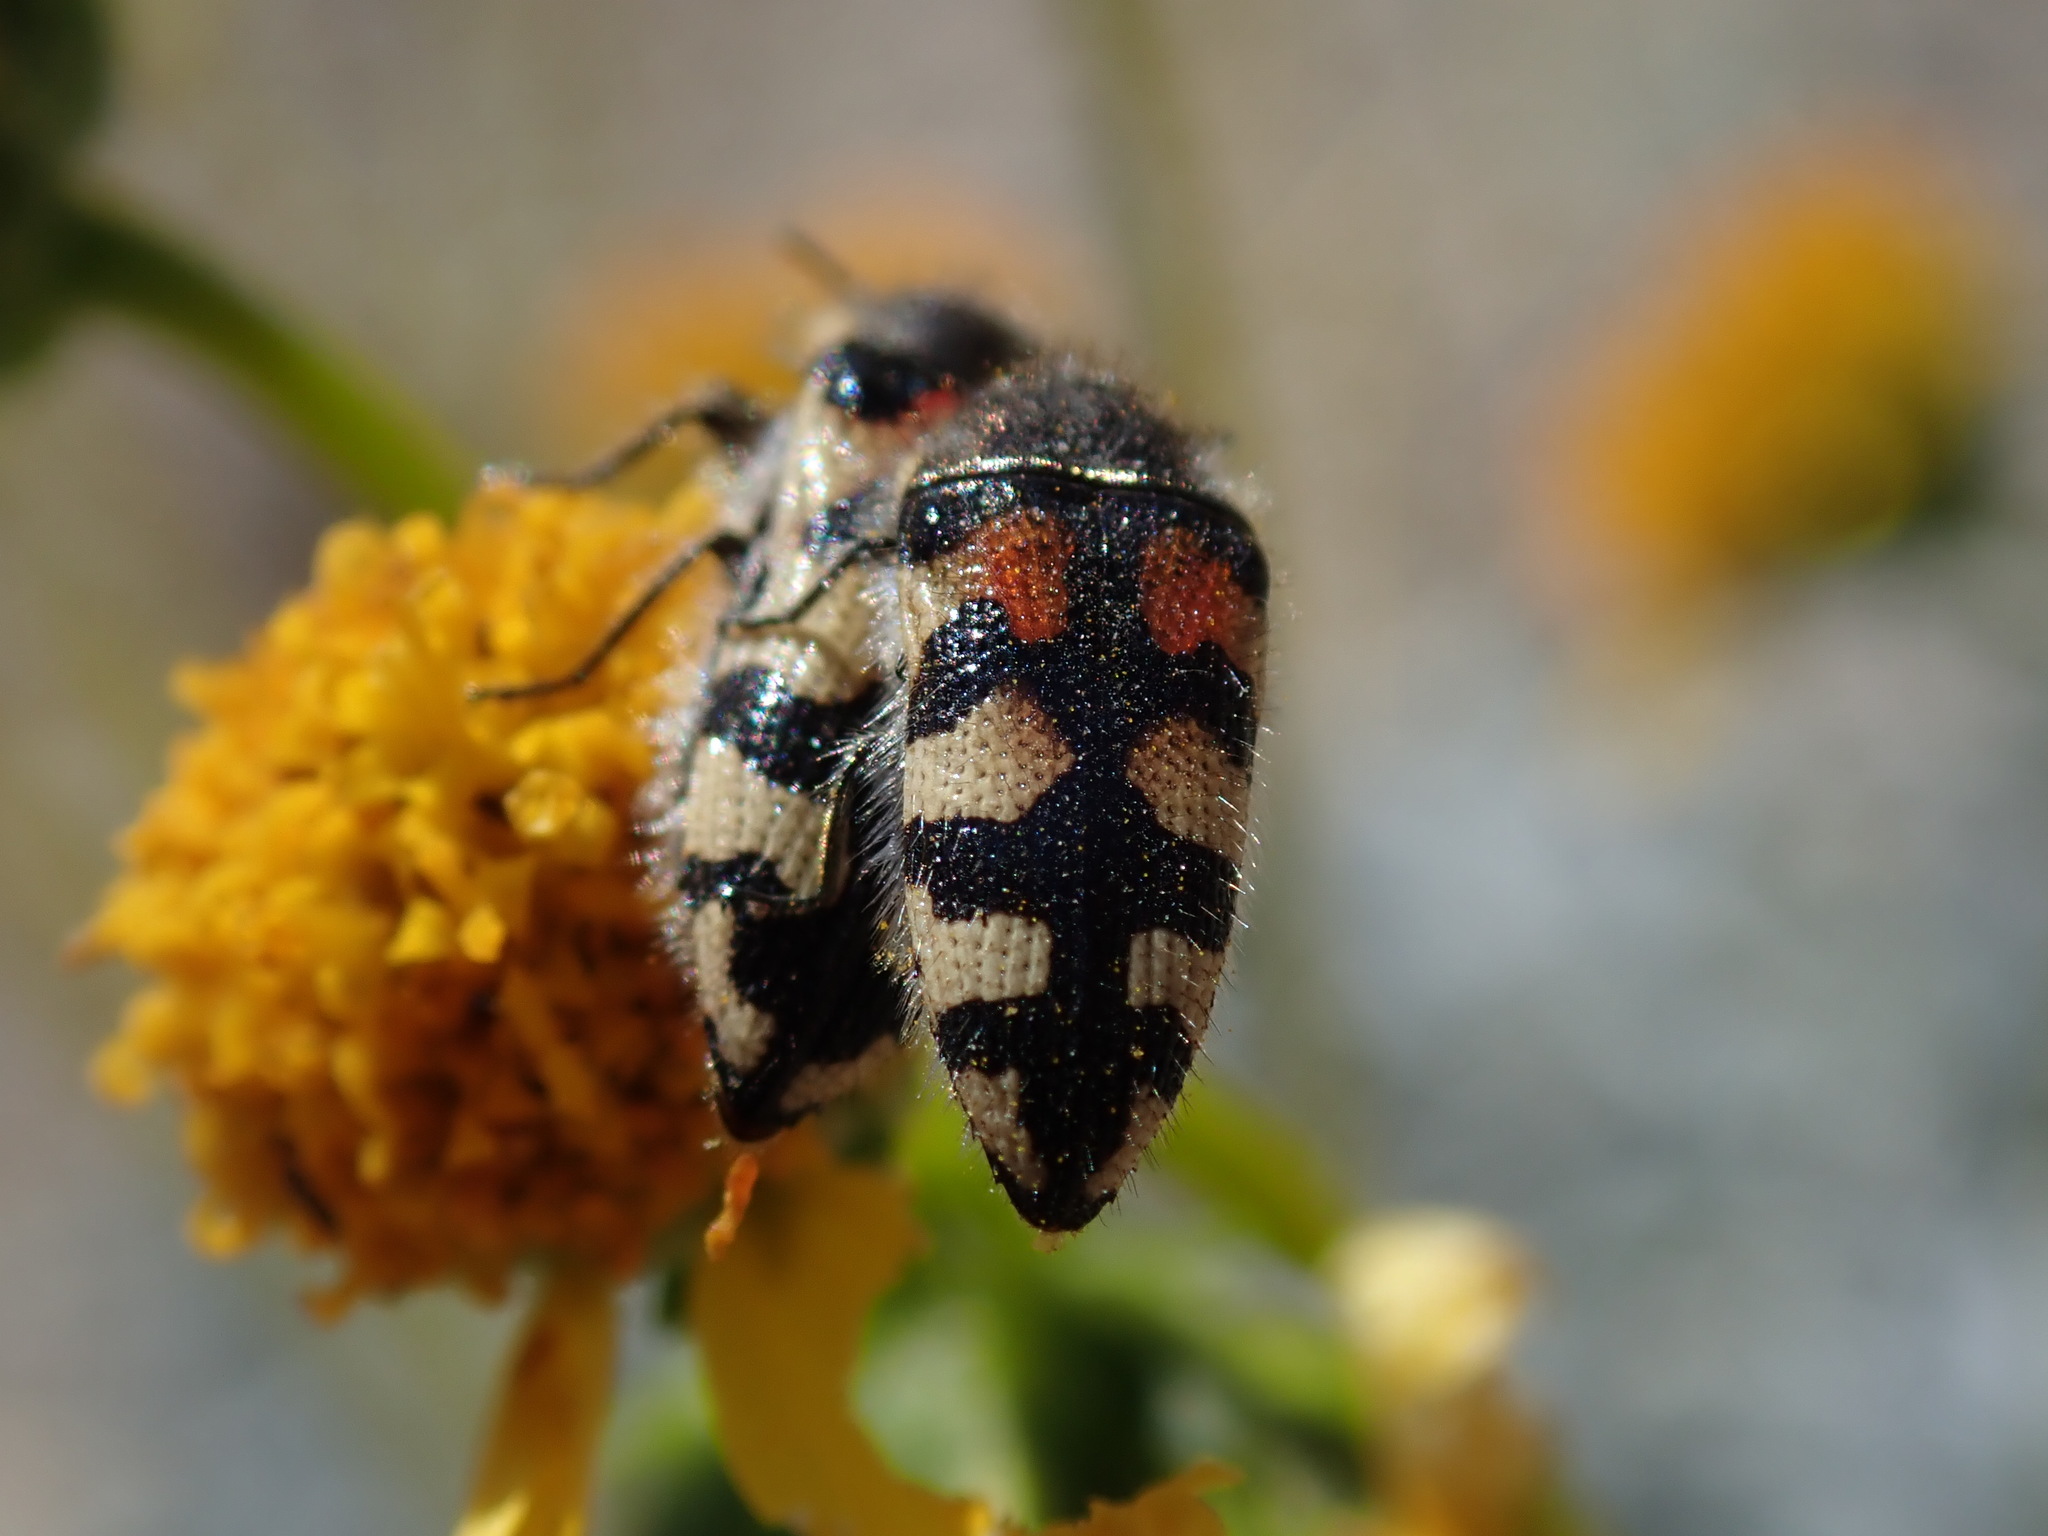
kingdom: Animalia
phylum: Arthropoda
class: Insecta
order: Coleoptera
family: Buprestidae
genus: Acmaeodera
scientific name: Acmaeodera tuta
